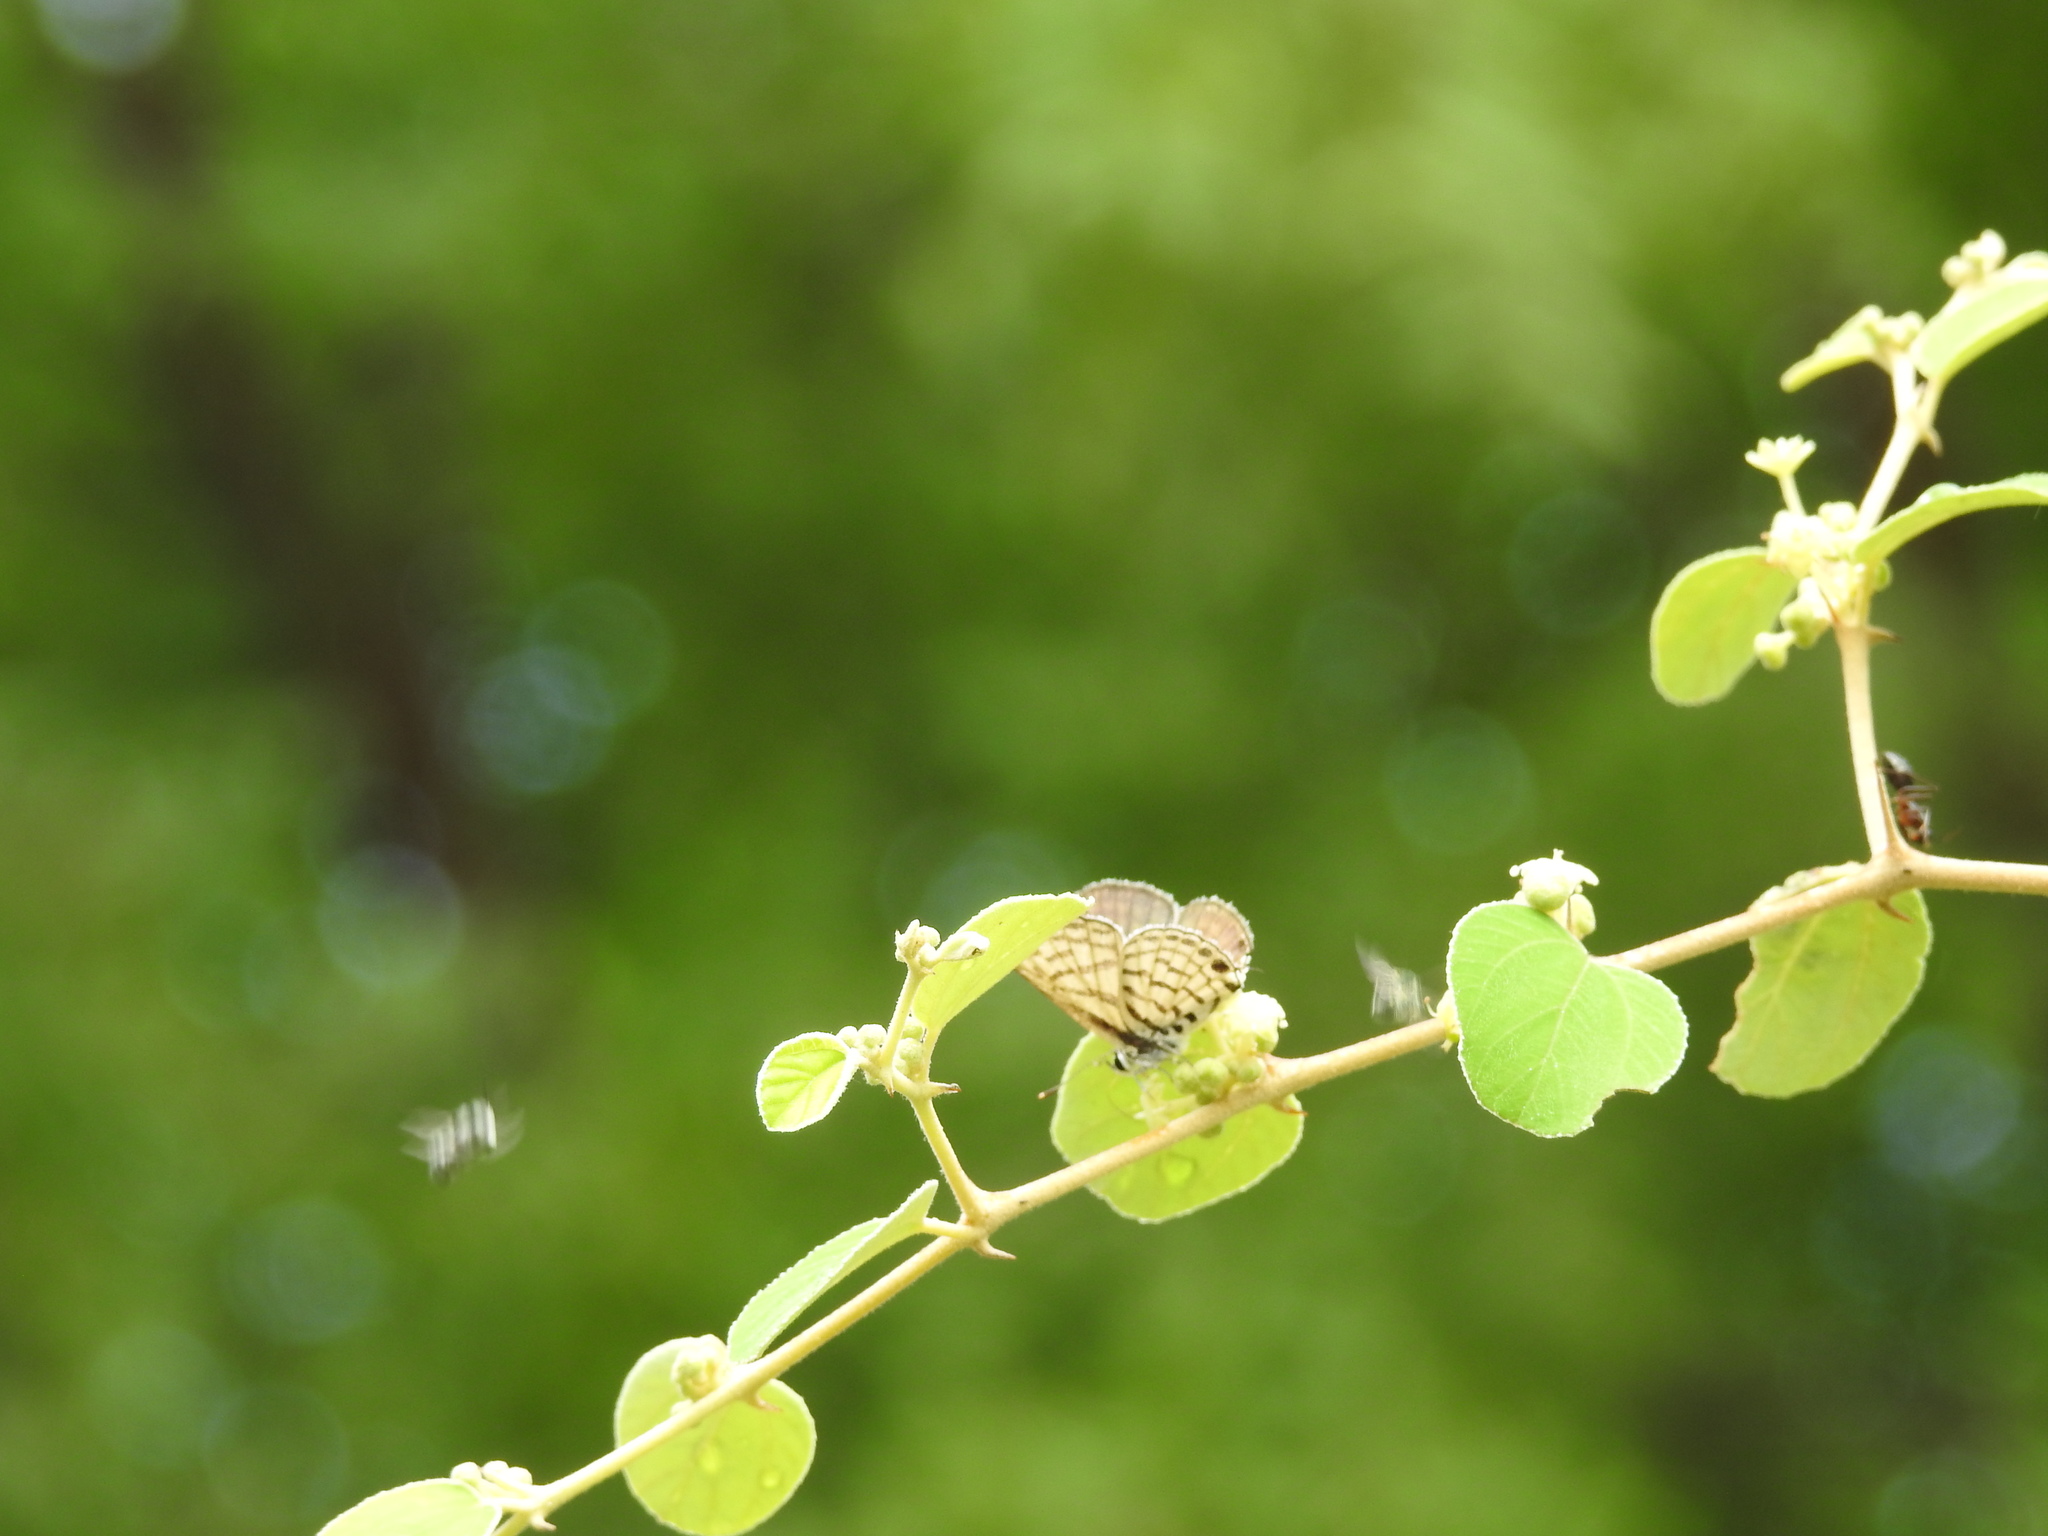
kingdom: Animalia
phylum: Arthropoda
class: Insecta
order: Lepidoptera
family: Lycaenidae
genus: Tarucus
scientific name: Tarucus balkanica
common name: Little tiger blue
